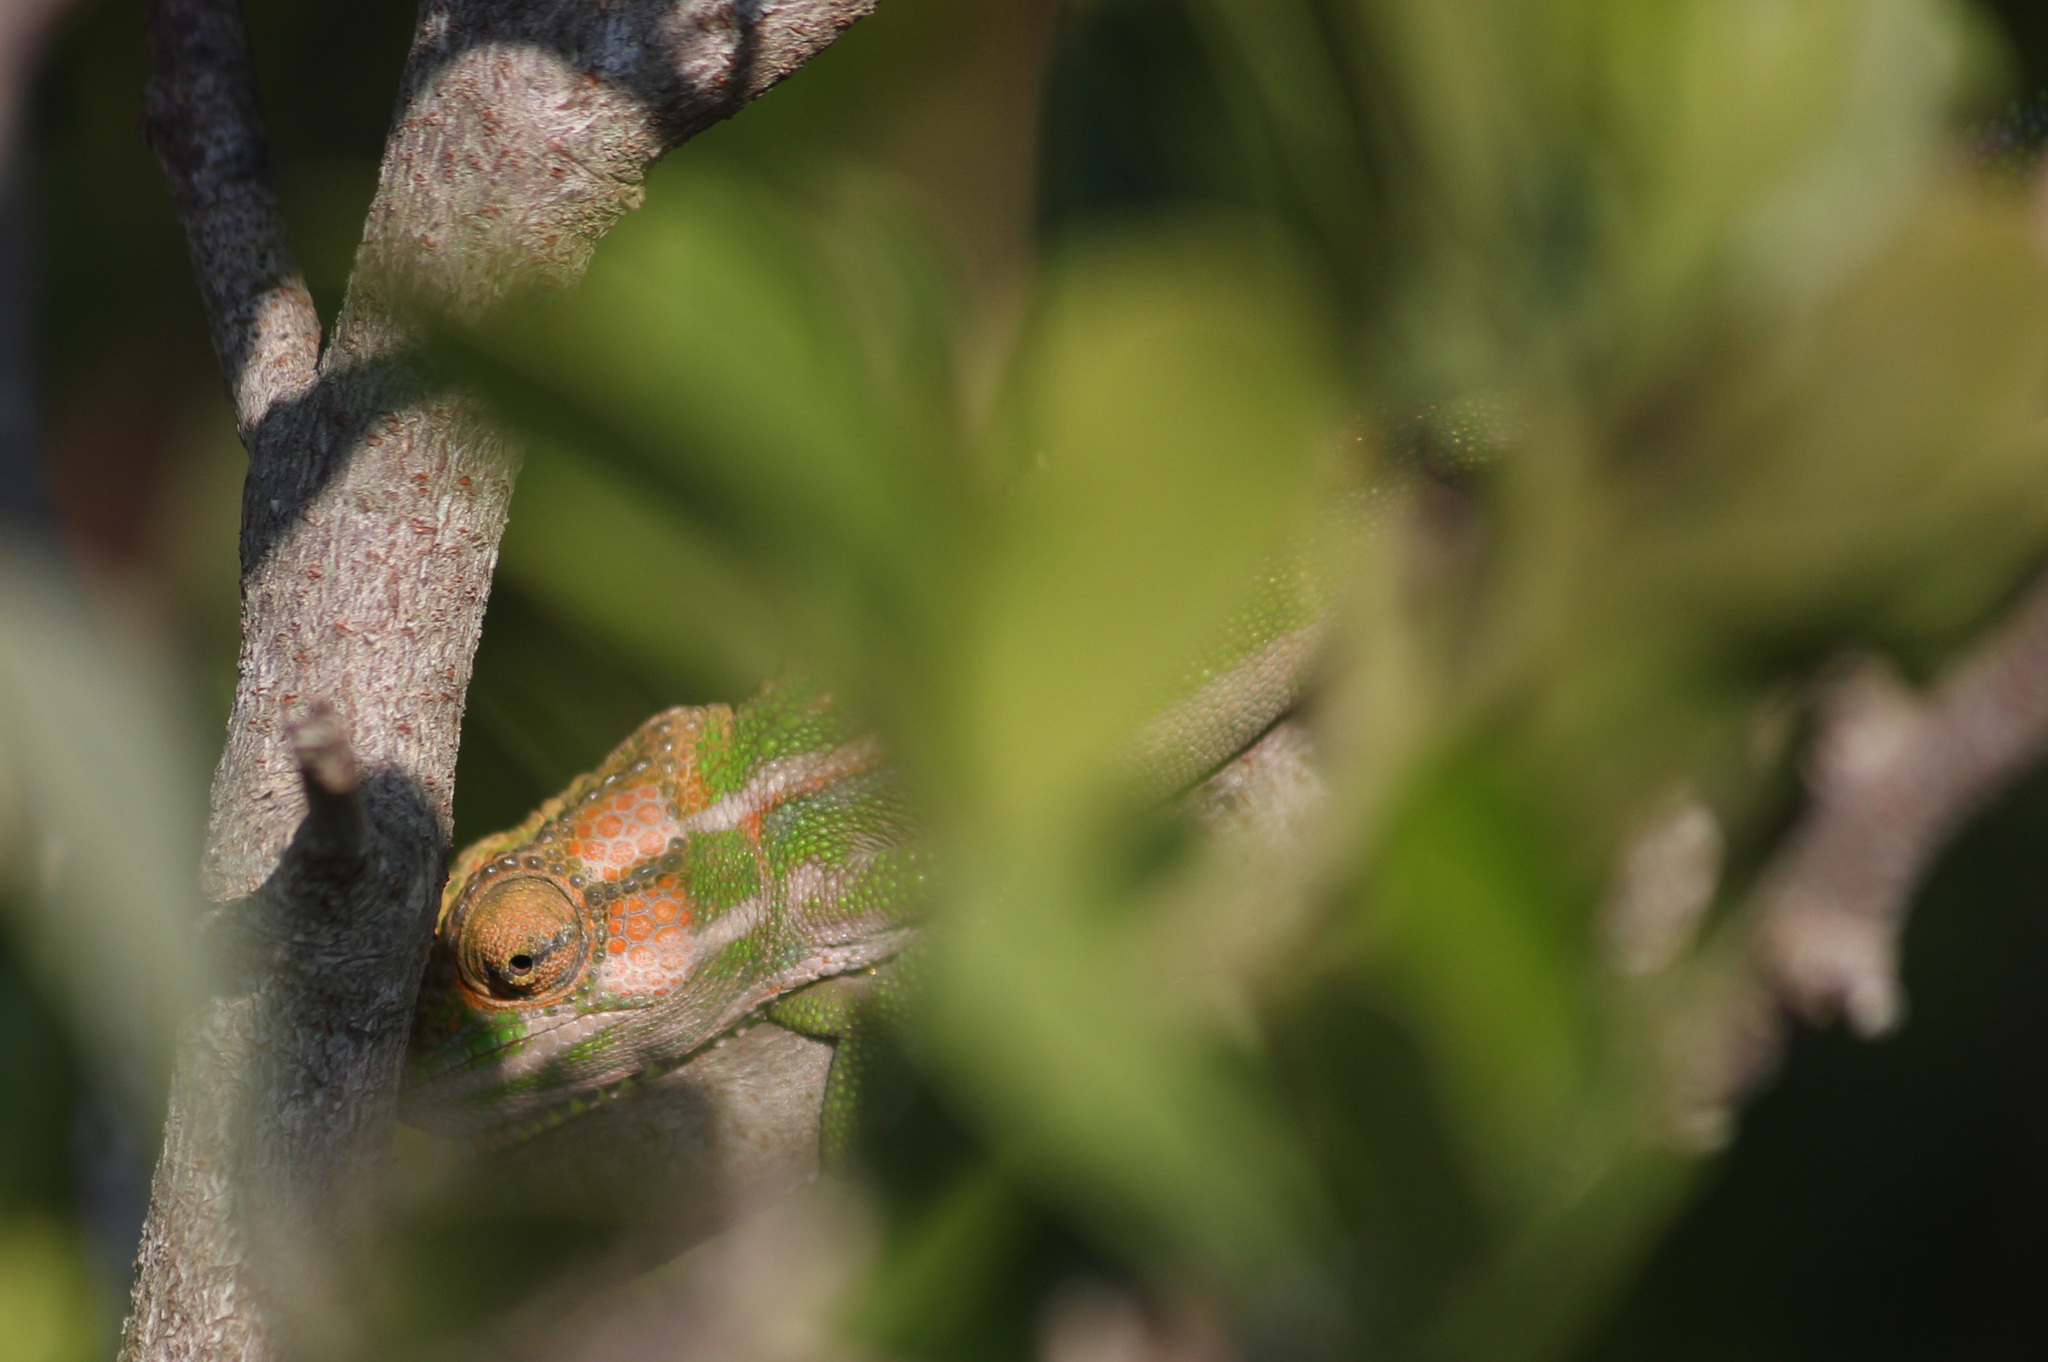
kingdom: Animalia
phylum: Chordata
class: Squamata
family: Chamaeleonidae
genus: Bradypodion
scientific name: Bradypodion pumilum
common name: Cape dwarf chameleon
